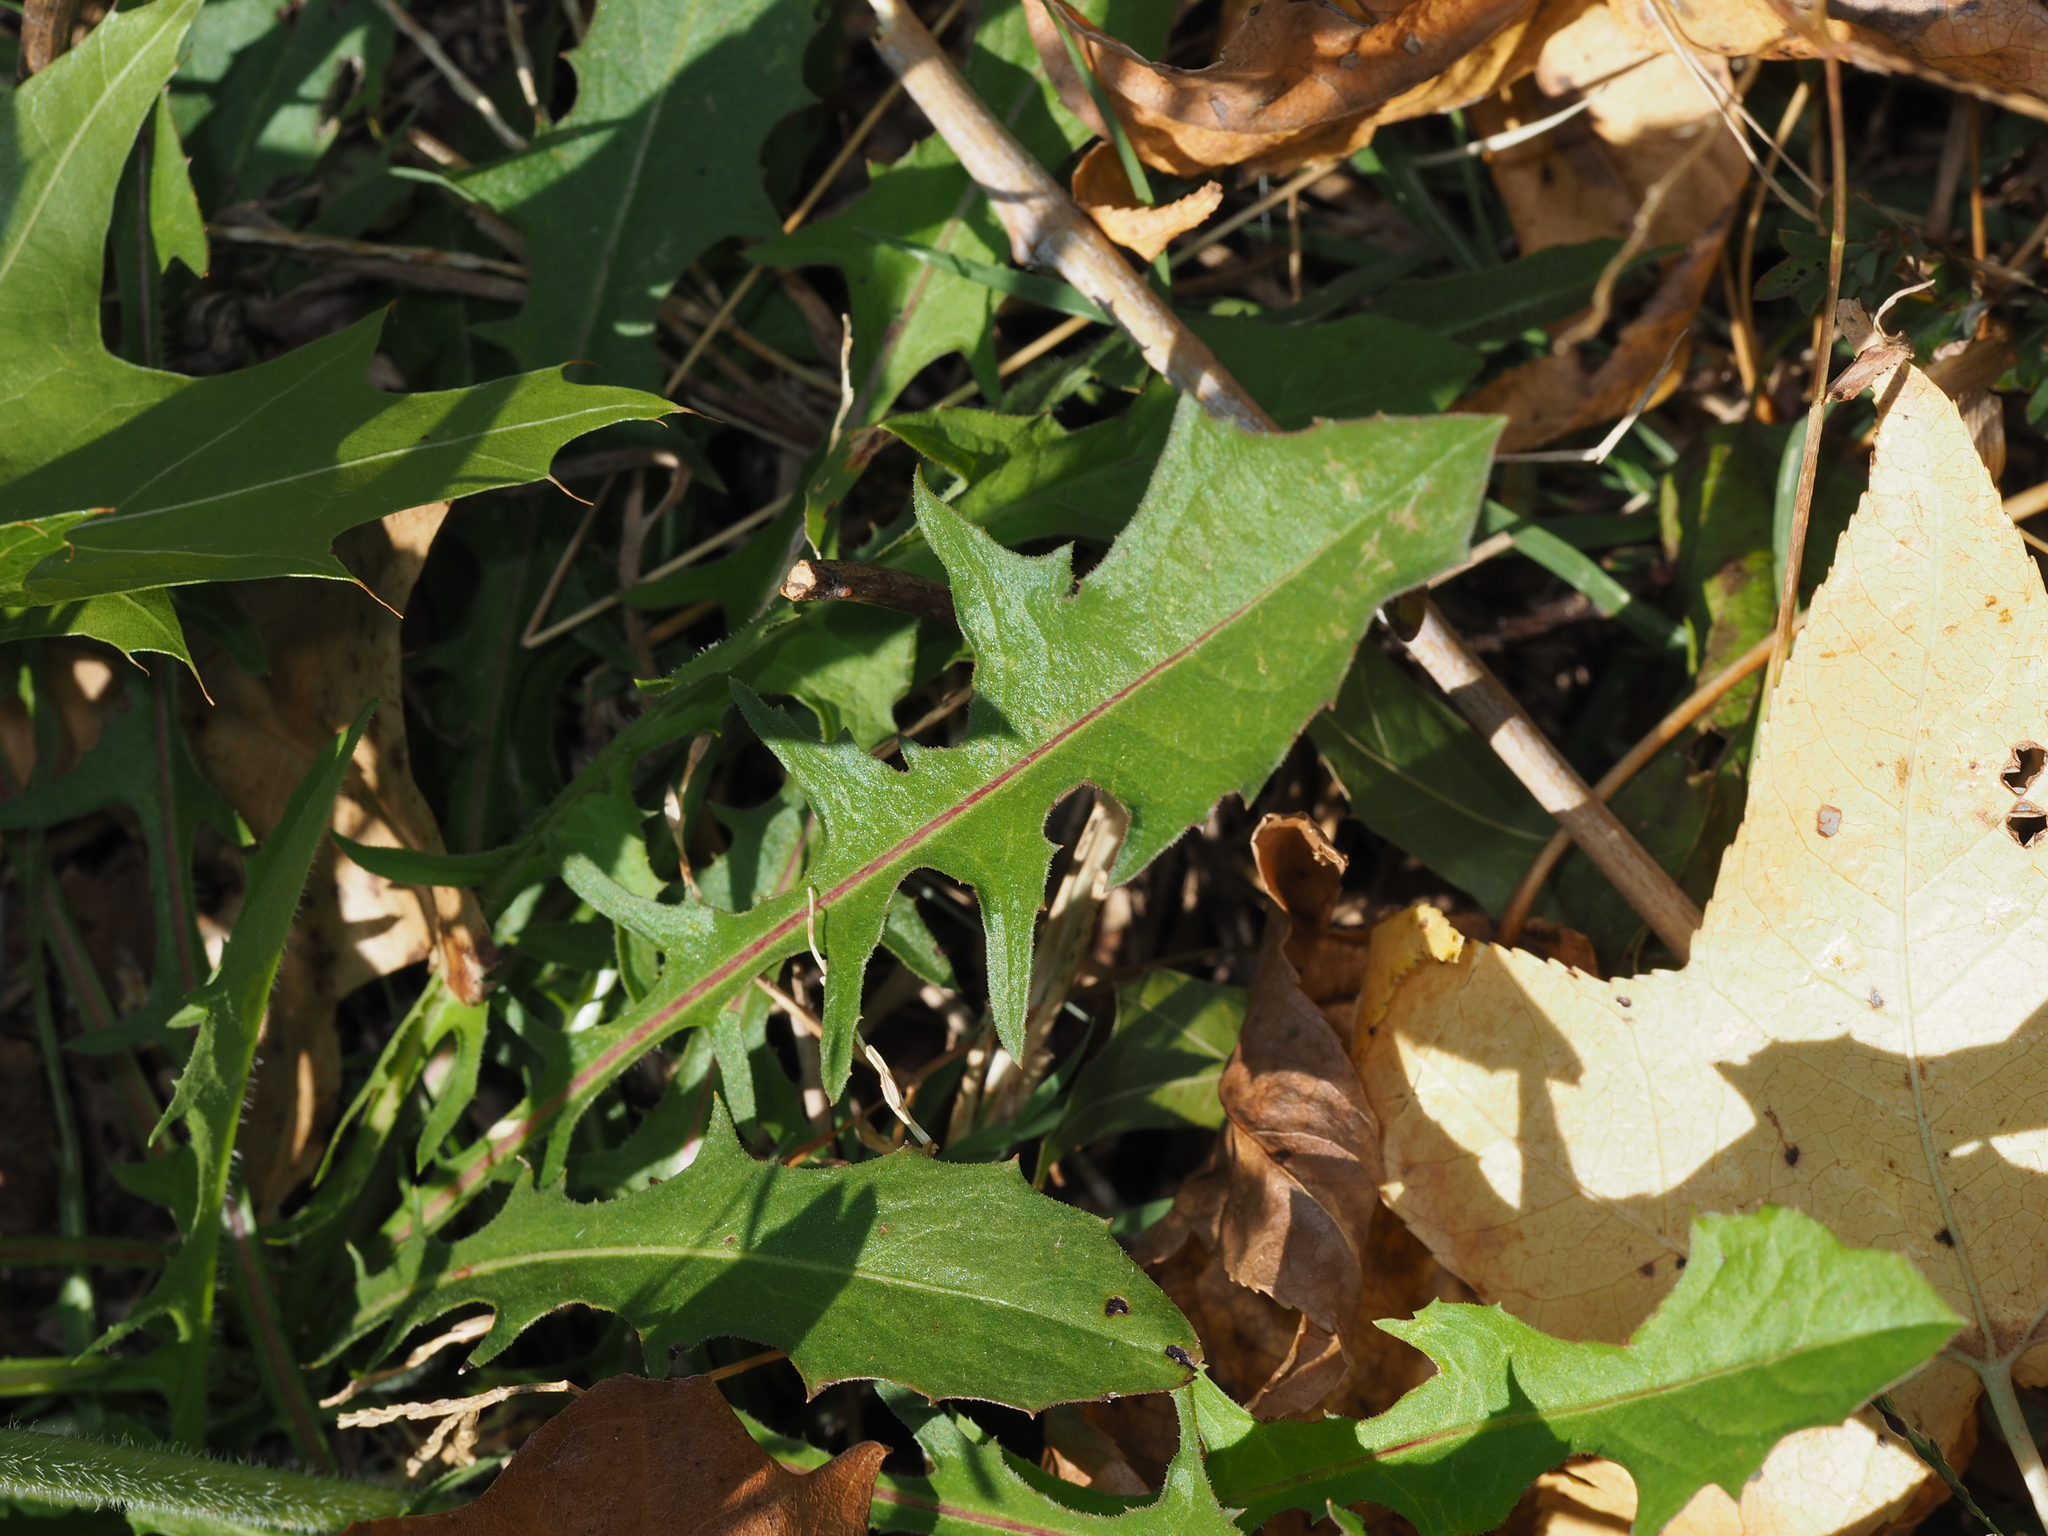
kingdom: Plantae
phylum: Tracheophyta
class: Magnoliopsida
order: Asterales
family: Asteraceae
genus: Cichorium
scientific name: Cichorium intybus
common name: Chicory
